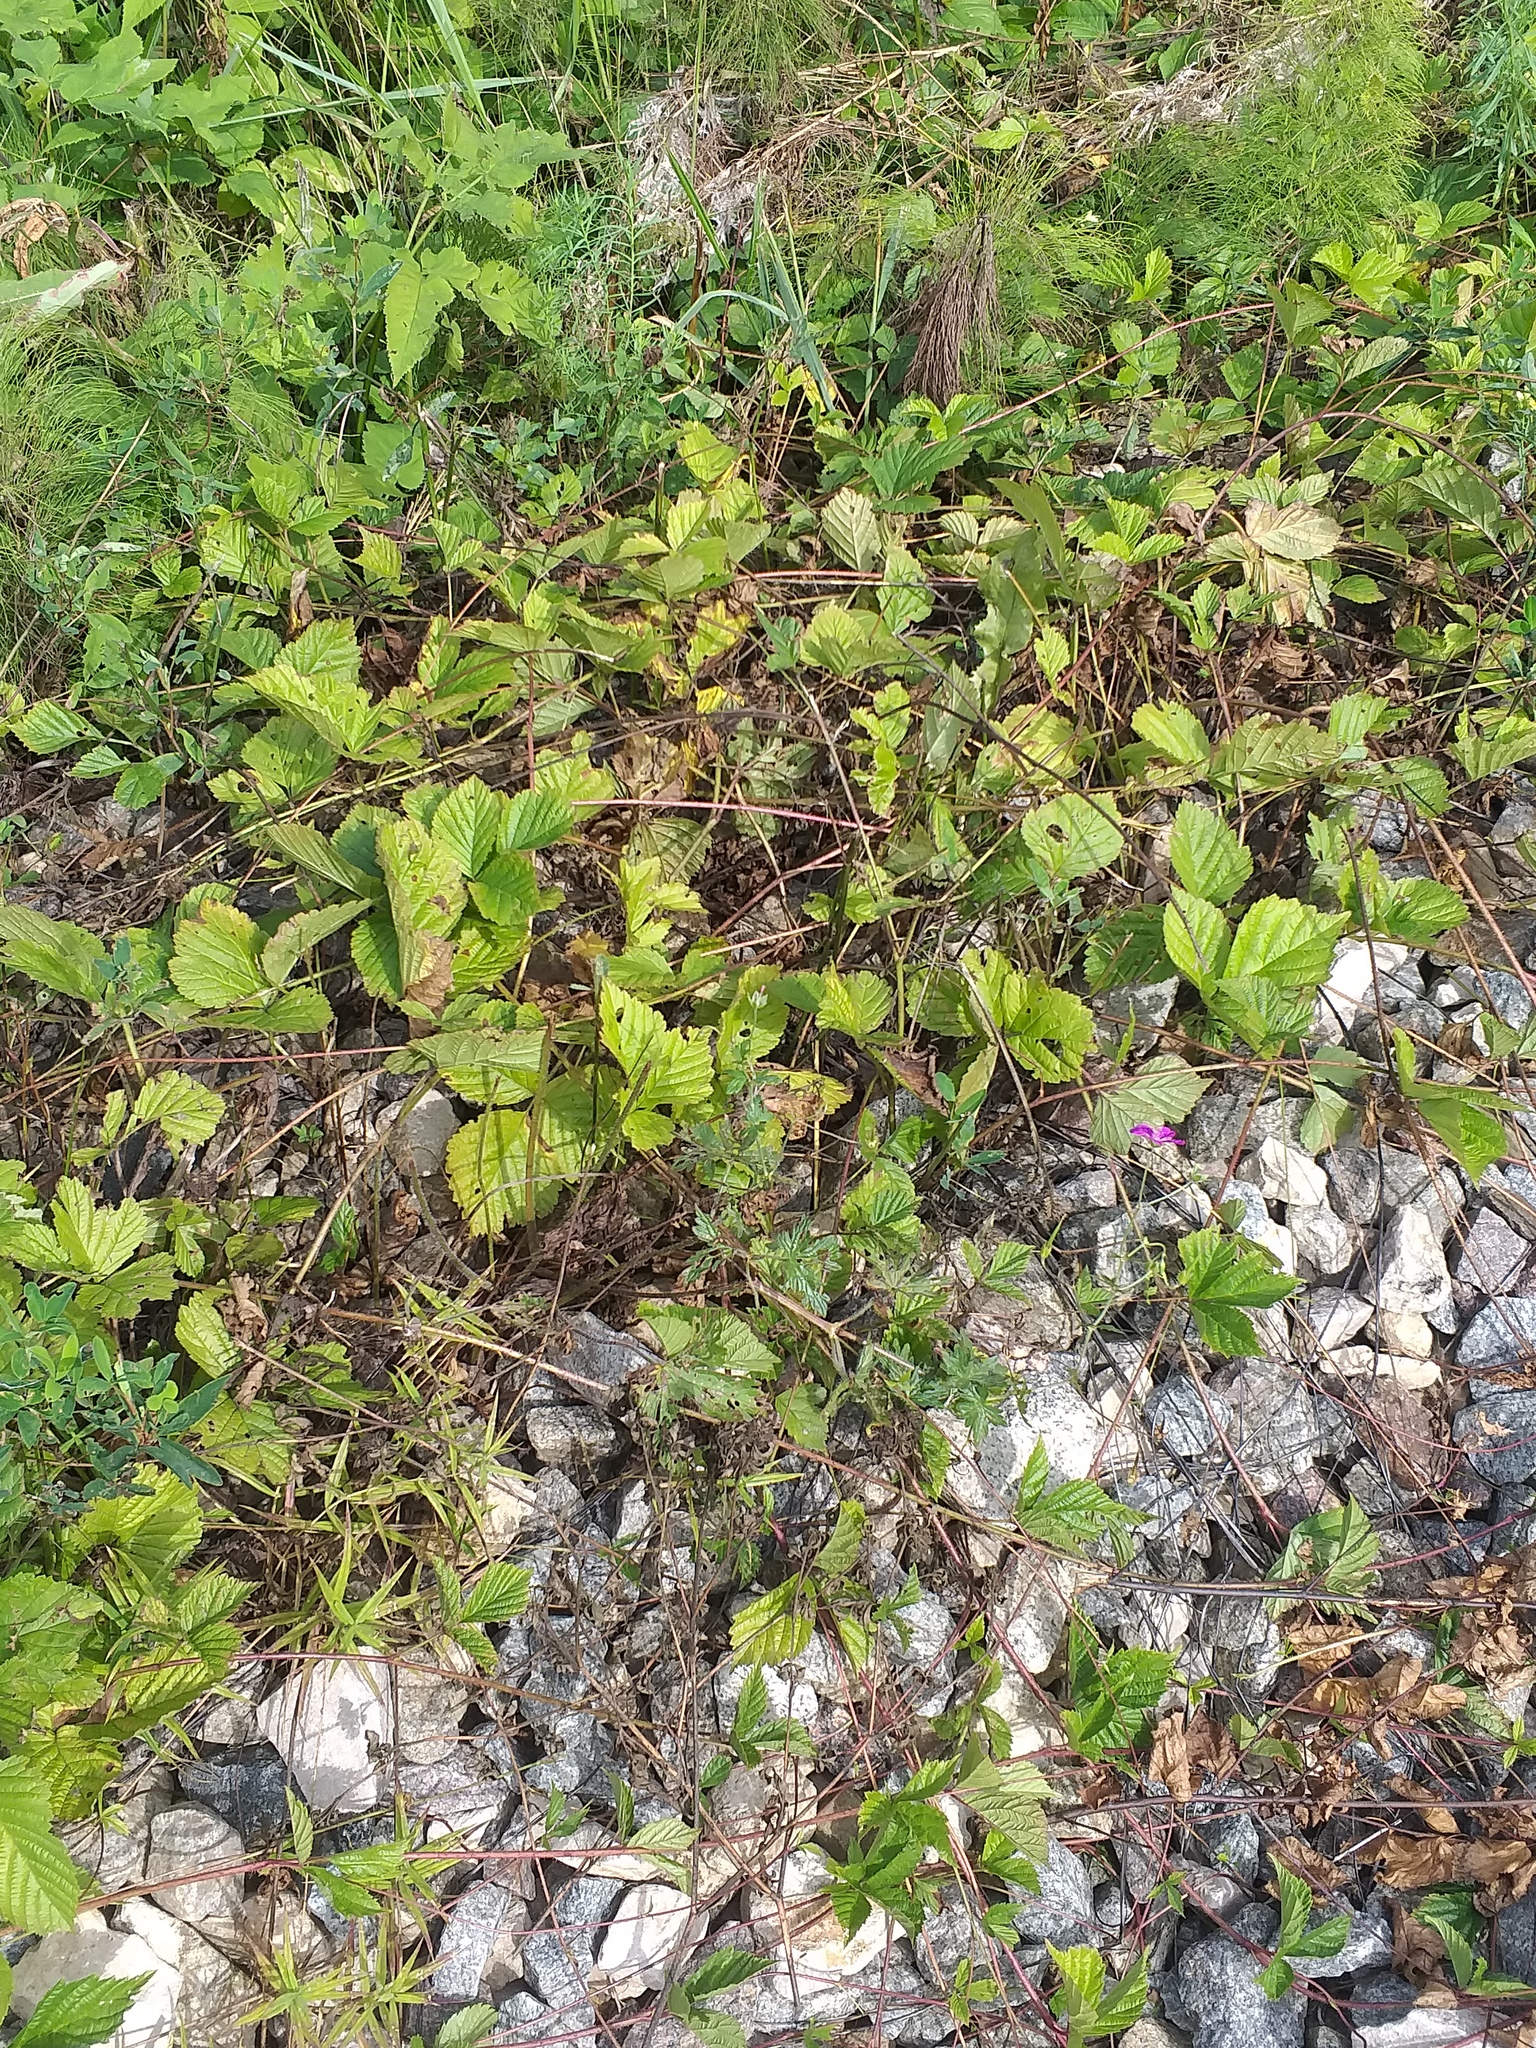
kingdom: Plantae
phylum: Tracheophyta
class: Magnoliopsida
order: Rosales
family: Rosaceae
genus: Rubus
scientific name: Rubus saxatilis
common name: Stone bramble
